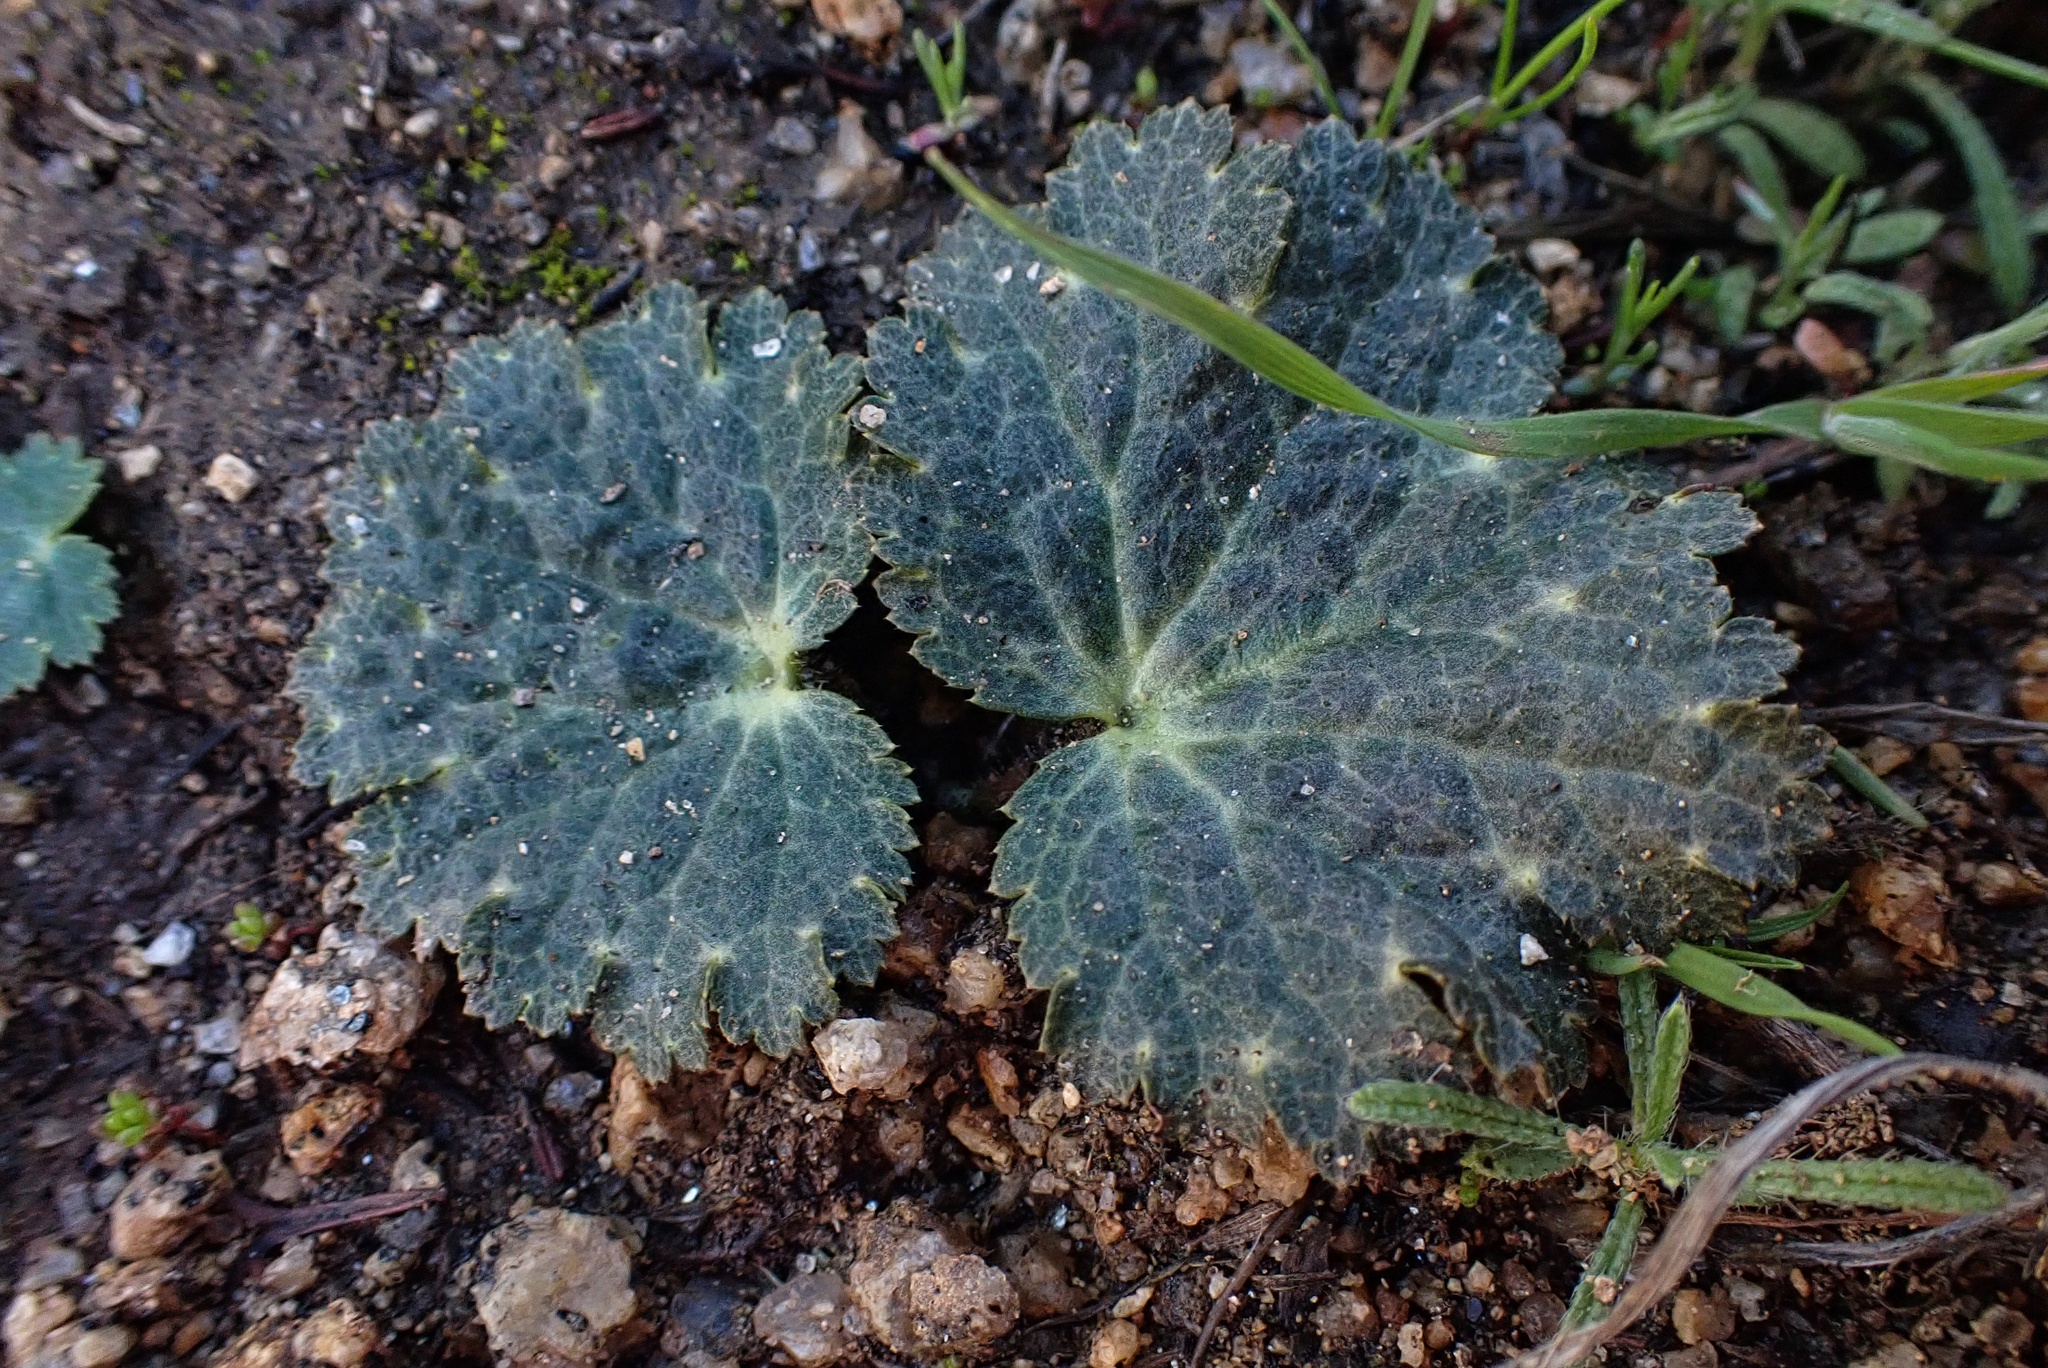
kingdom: Plantae
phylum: Tracheophyta
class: Magnoliopsida
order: Saxifragales
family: Saxifragaceae
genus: Jepsonia
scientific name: Jepsonia parryi
